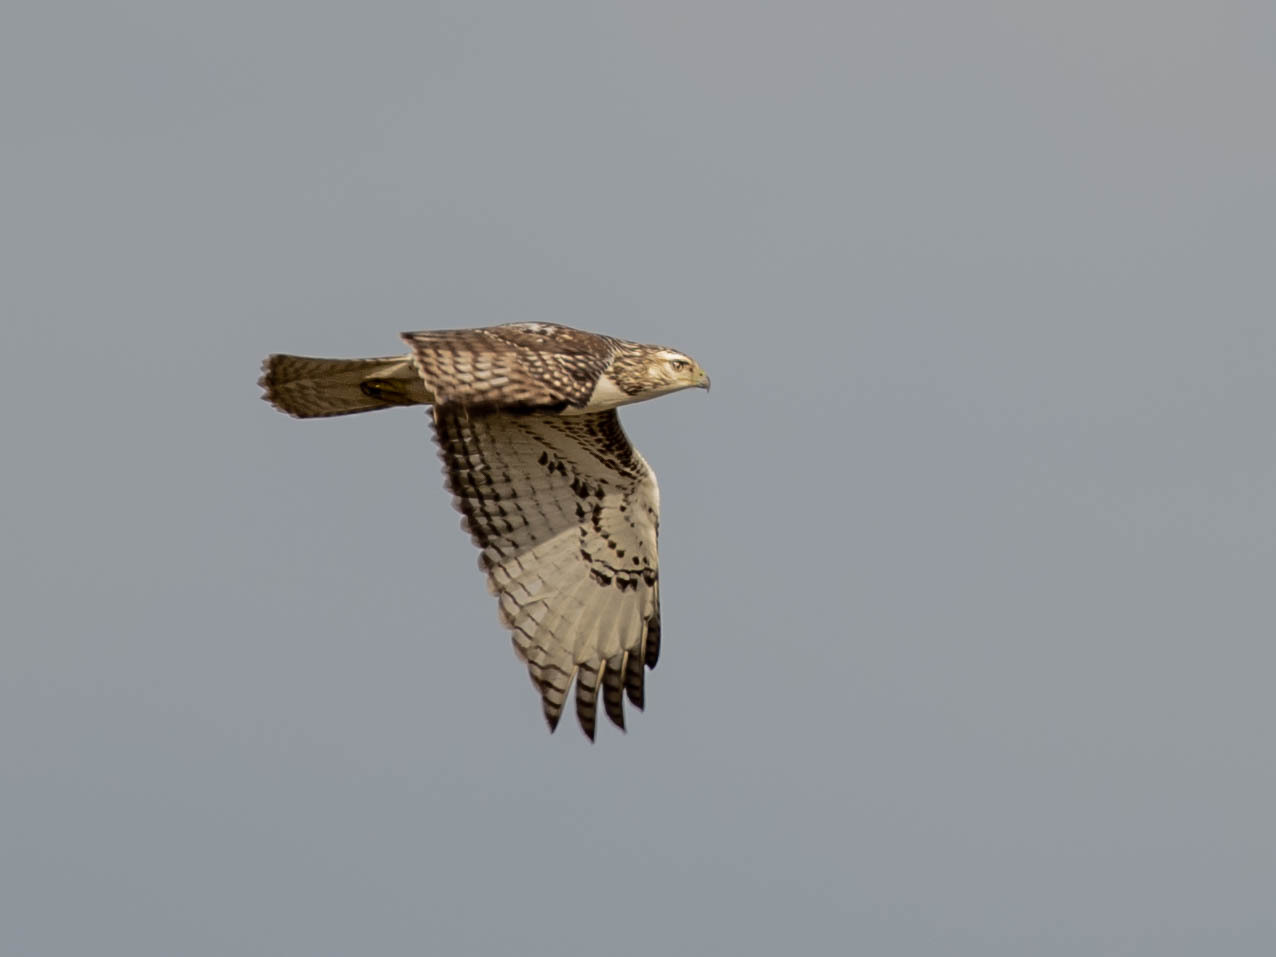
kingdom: Animalia
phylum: Chordata
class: Aves
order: Accipitriformes
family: Accipitridae
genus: Buteo
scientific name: Buteo jamaicensis
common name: Red-tailed hawk
